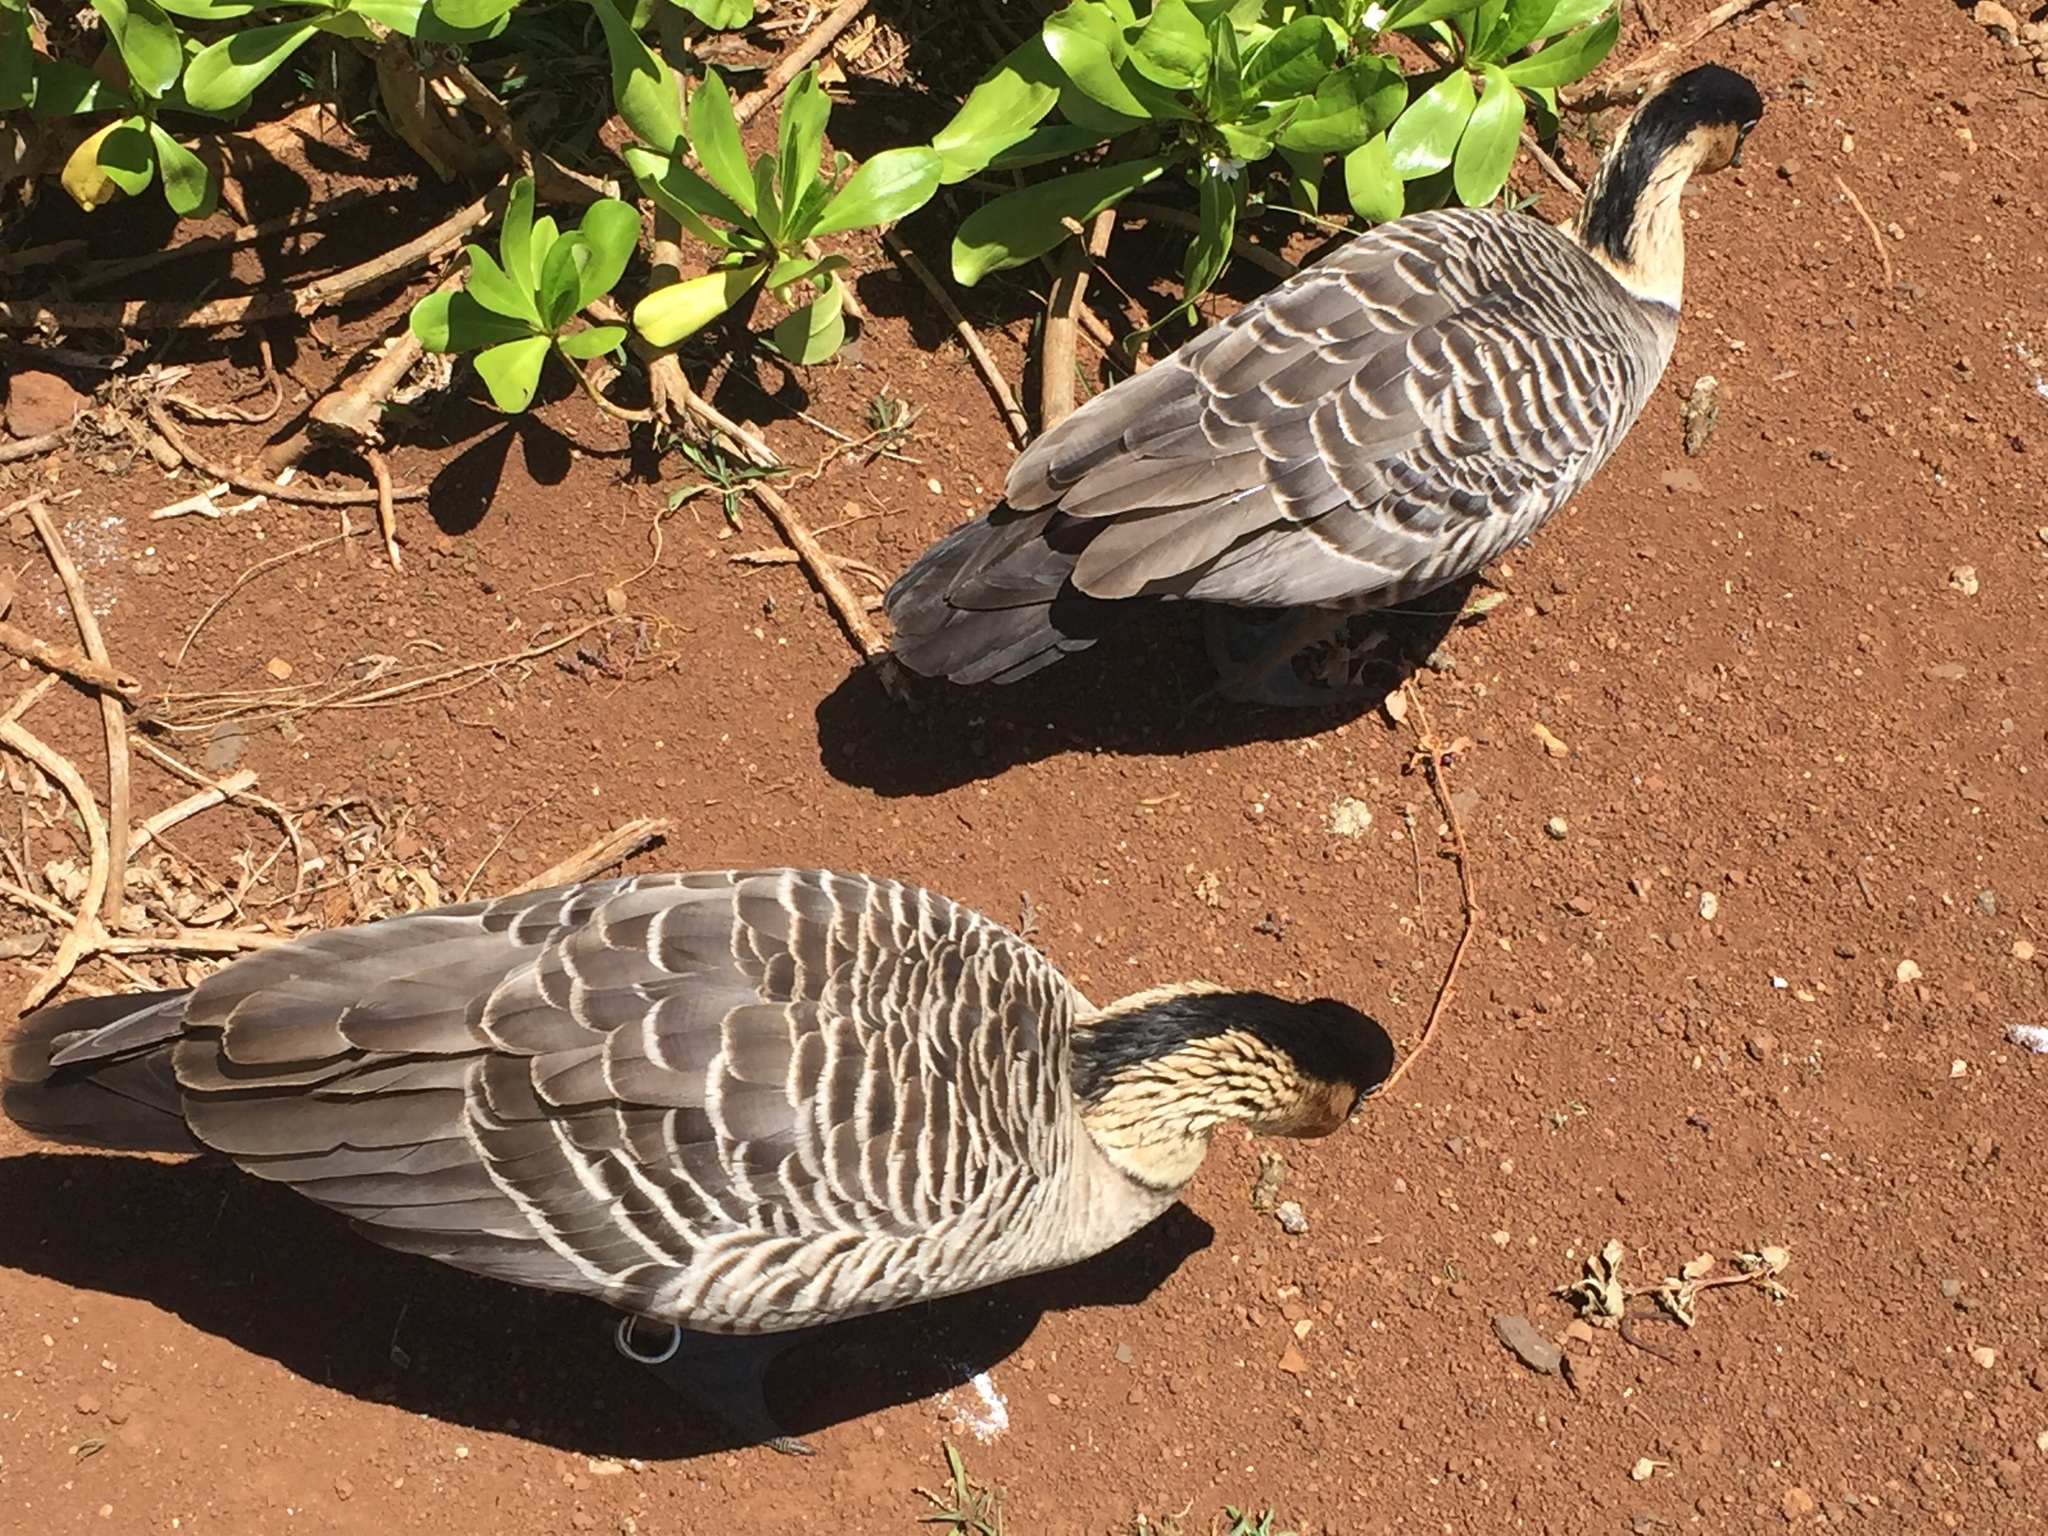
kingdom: Animalia
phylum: Chordata
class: Aves
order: Anseriformes
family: Anatidae
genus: Branta
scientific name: Branta sandvicensis
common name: Nene
